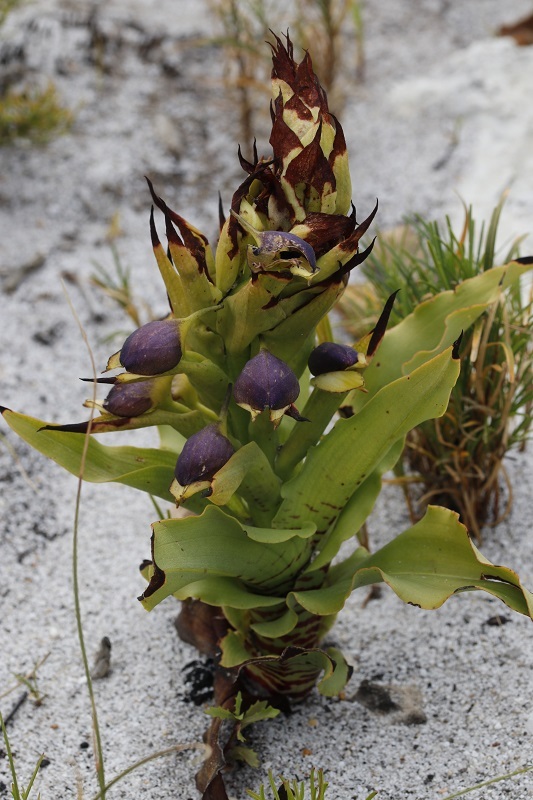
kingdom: Plantae
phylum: Tracheophyta
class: Liliopsida
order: Asparagales
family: Orchidaceae
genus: Disa
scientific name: Disa cornuta
